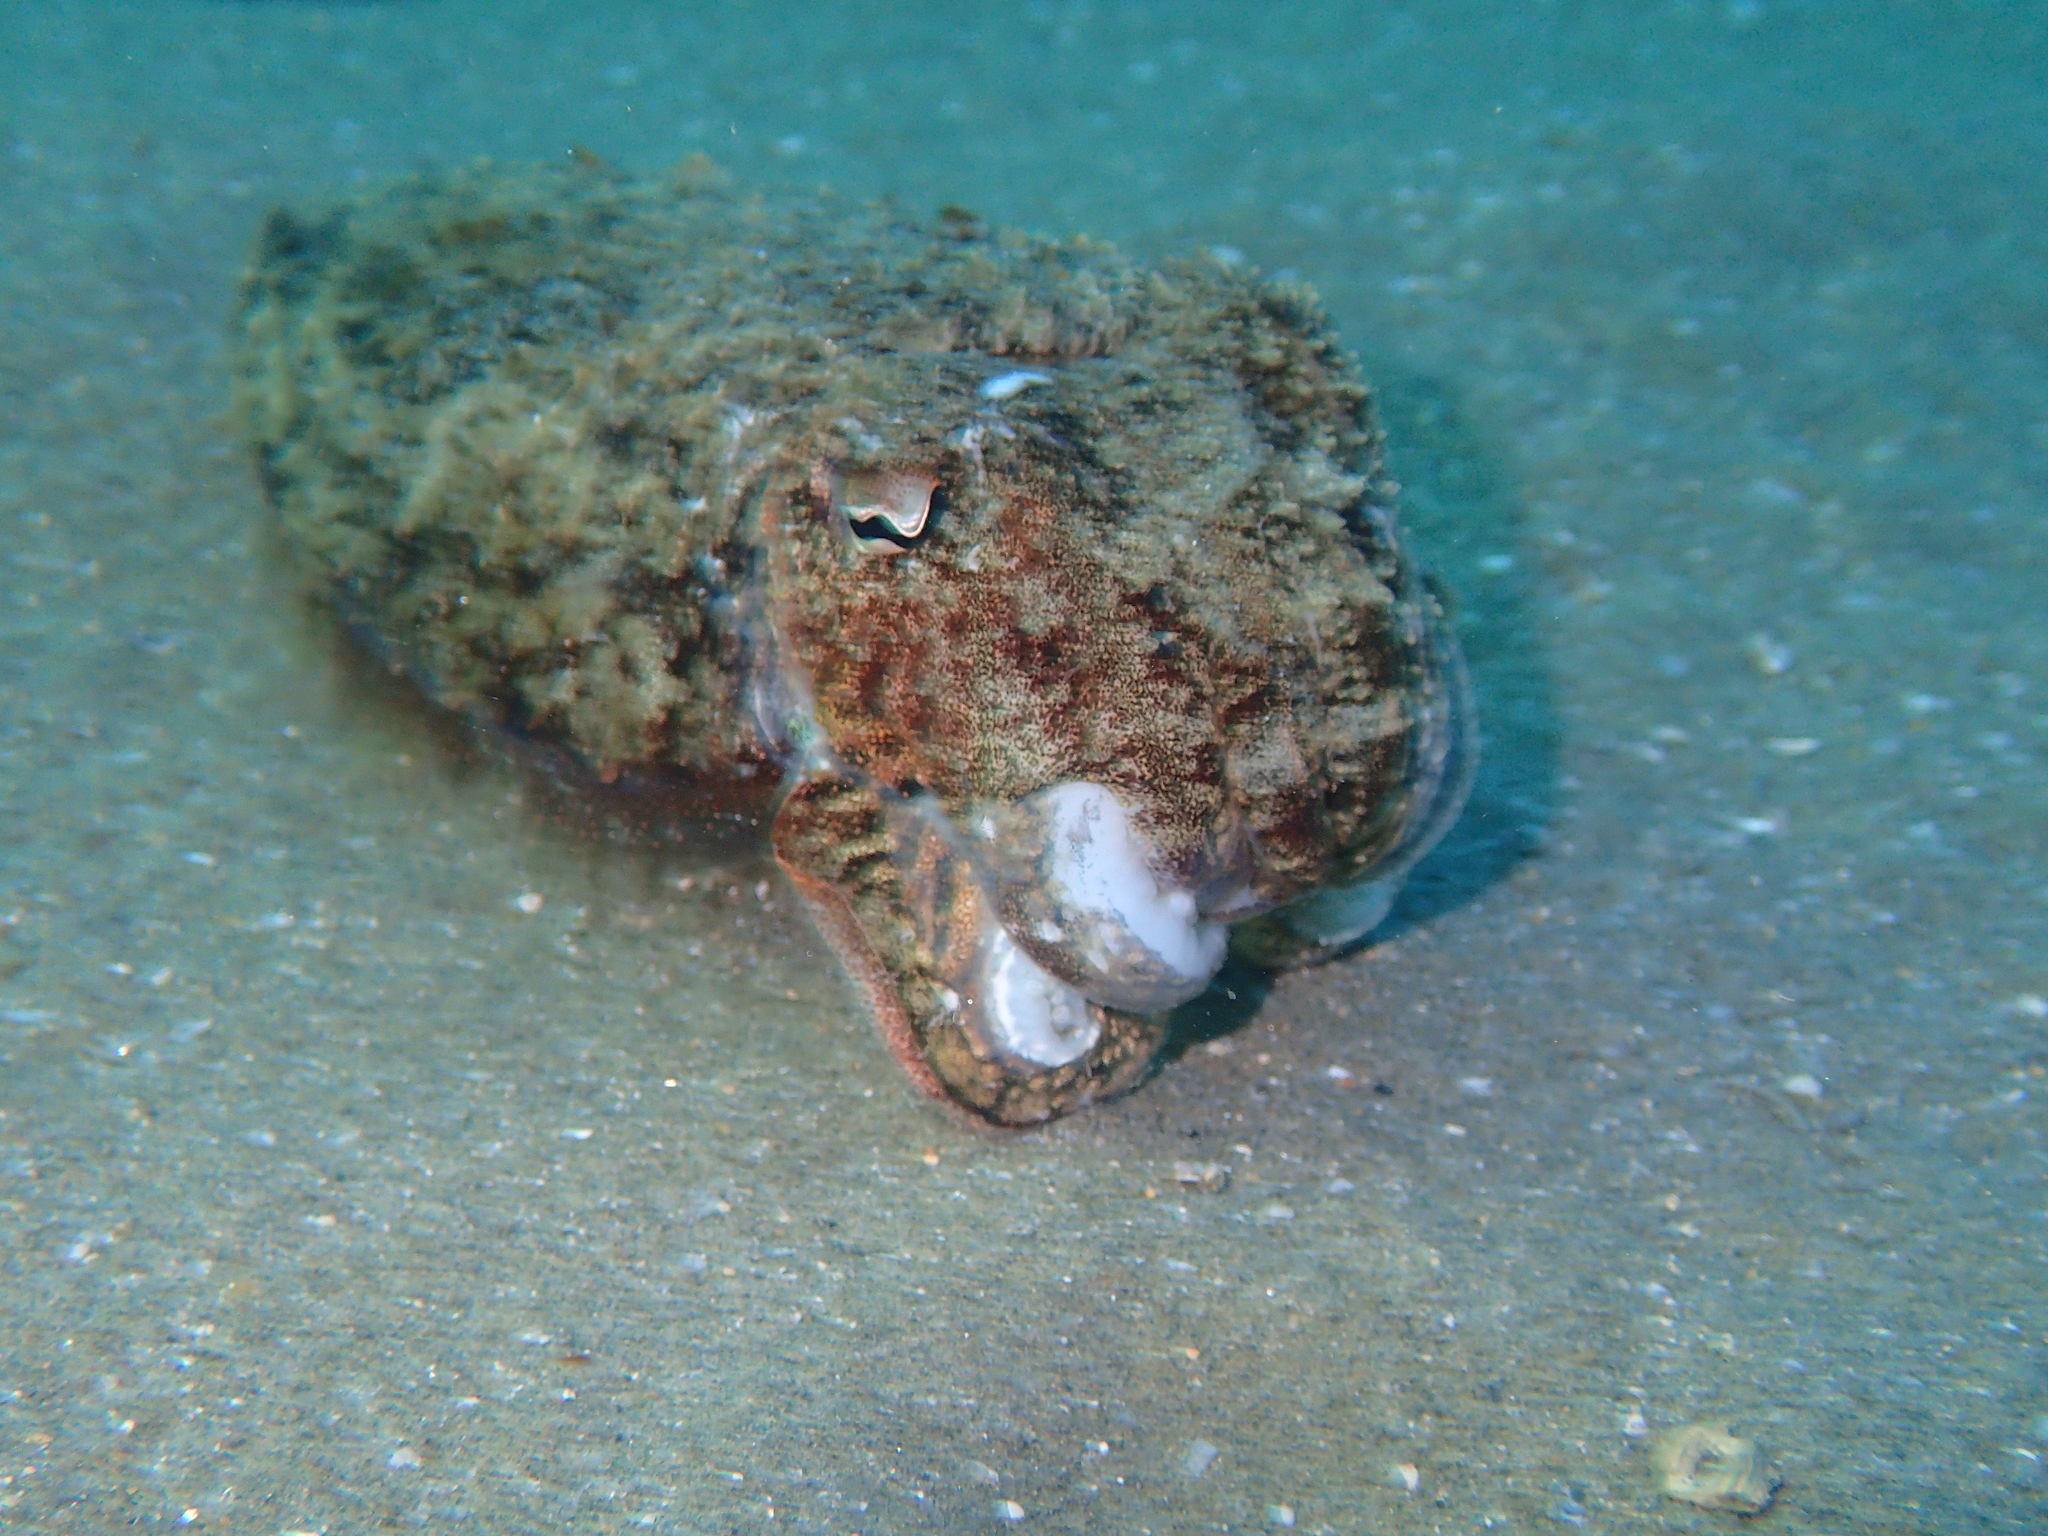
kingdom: Animalia
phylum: Mollusca
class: Cephalopoda
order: Sepiida
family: Sepiidae
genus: Sepia
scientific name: Sepia officinalis
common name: Common cuttlefish
